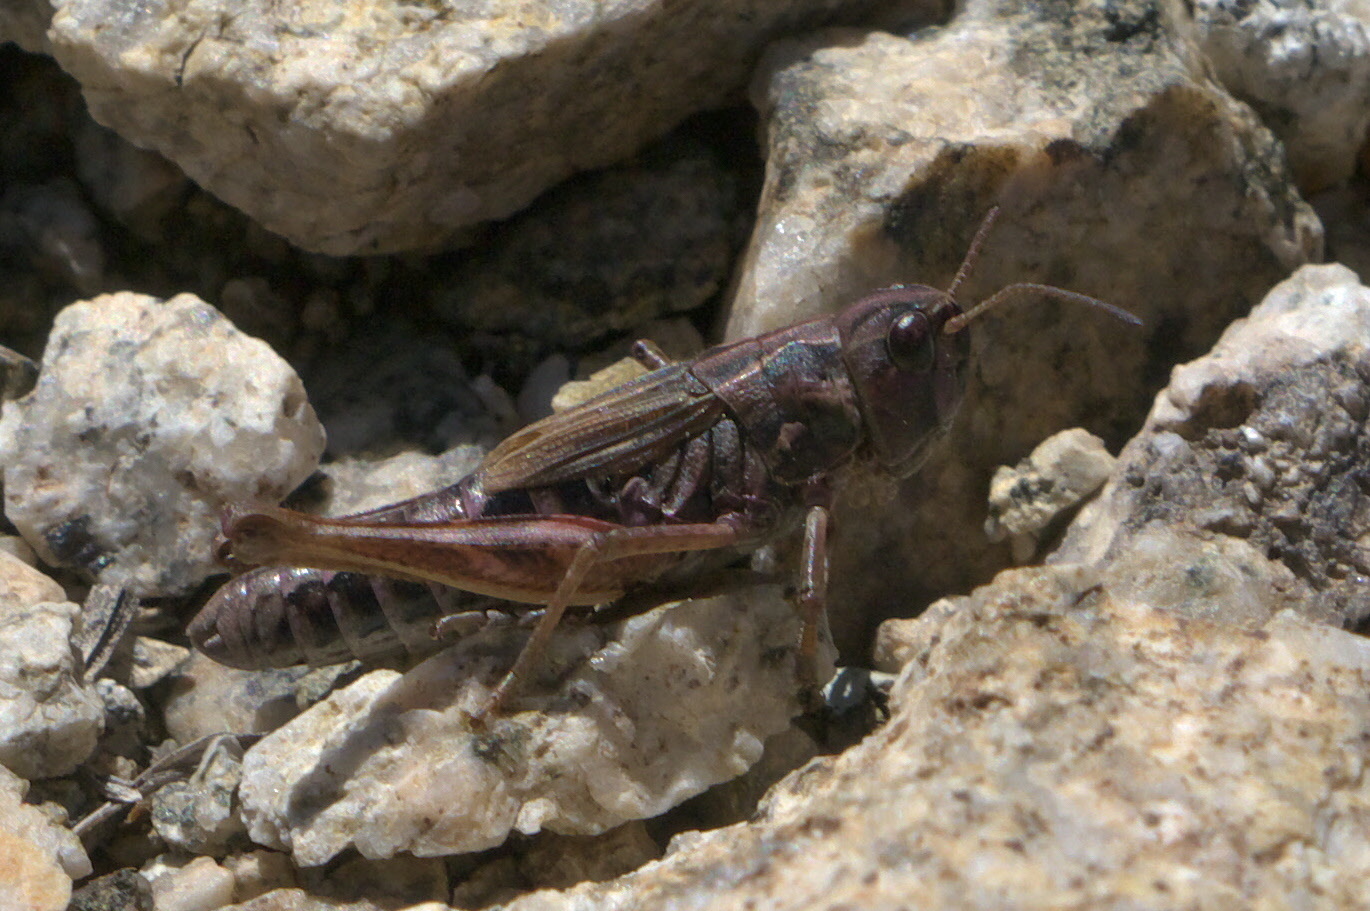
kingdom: Animalia
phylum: Arthropoda
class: Insecta
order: Orthoptera
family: Acrididae
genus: Aeropedellus
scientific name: Aeropedellus clavatus
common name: Clubhorned grasshopper
